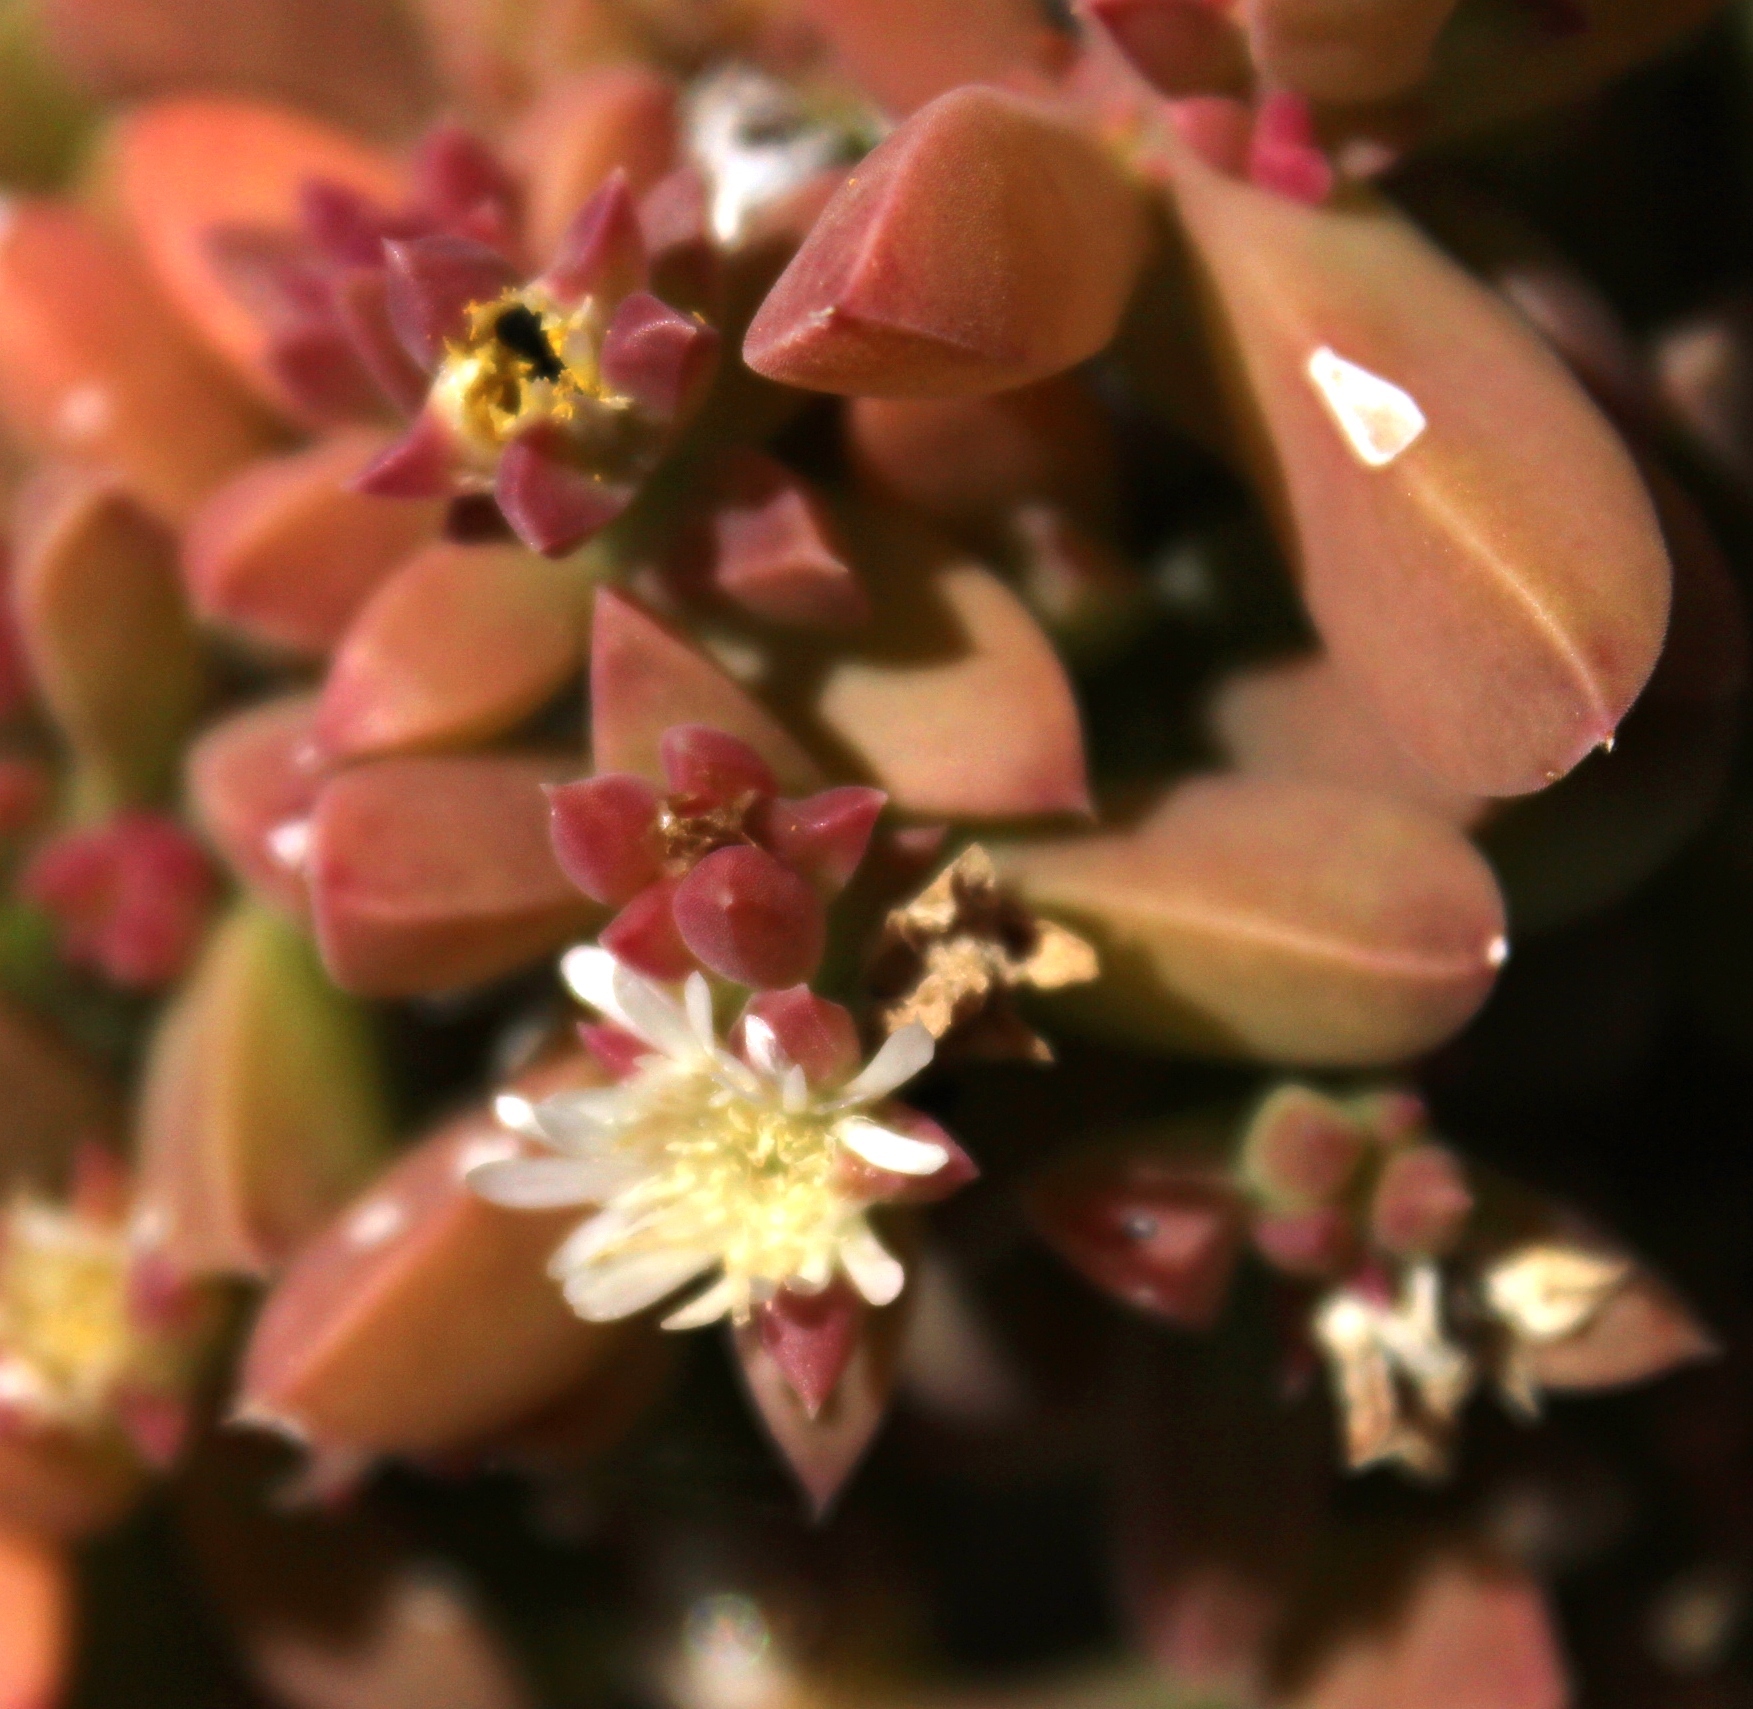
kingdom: Plantae
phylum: Tracheophyta
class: Magnoliopsida
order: Caryophyllales
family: Aizoaceae
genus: Delosperma
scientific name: Delosperma patersoniae
